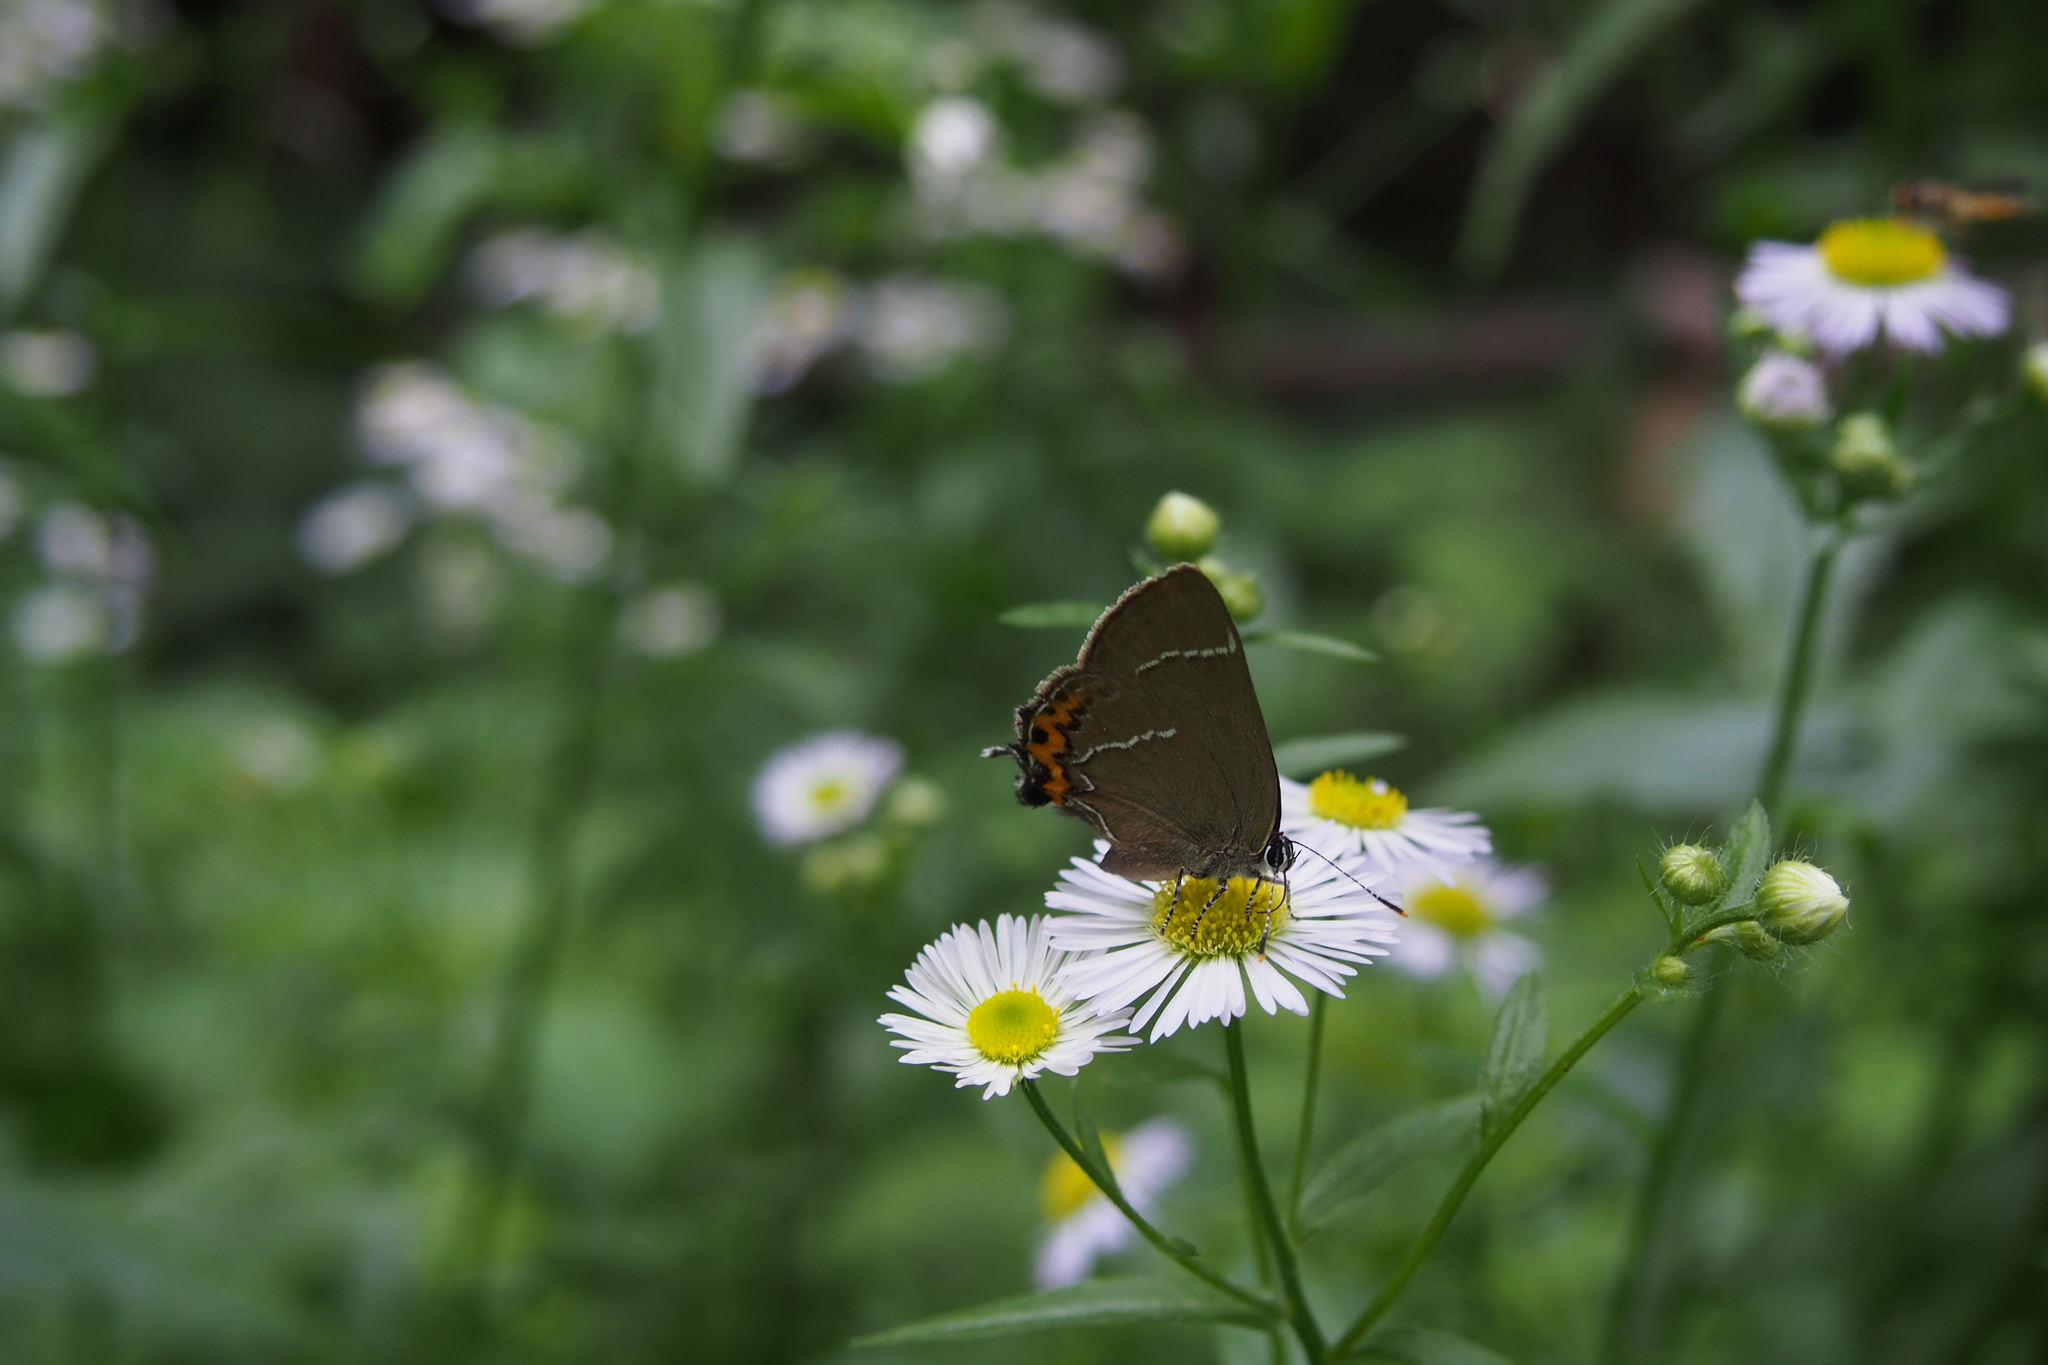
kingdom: Animalia
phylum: Arthropoda
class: Insecta
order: Lepidoptera
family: Lycaenidae
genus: Satyrium
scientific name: Satyrium w-album
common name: White-letter hairstreak
